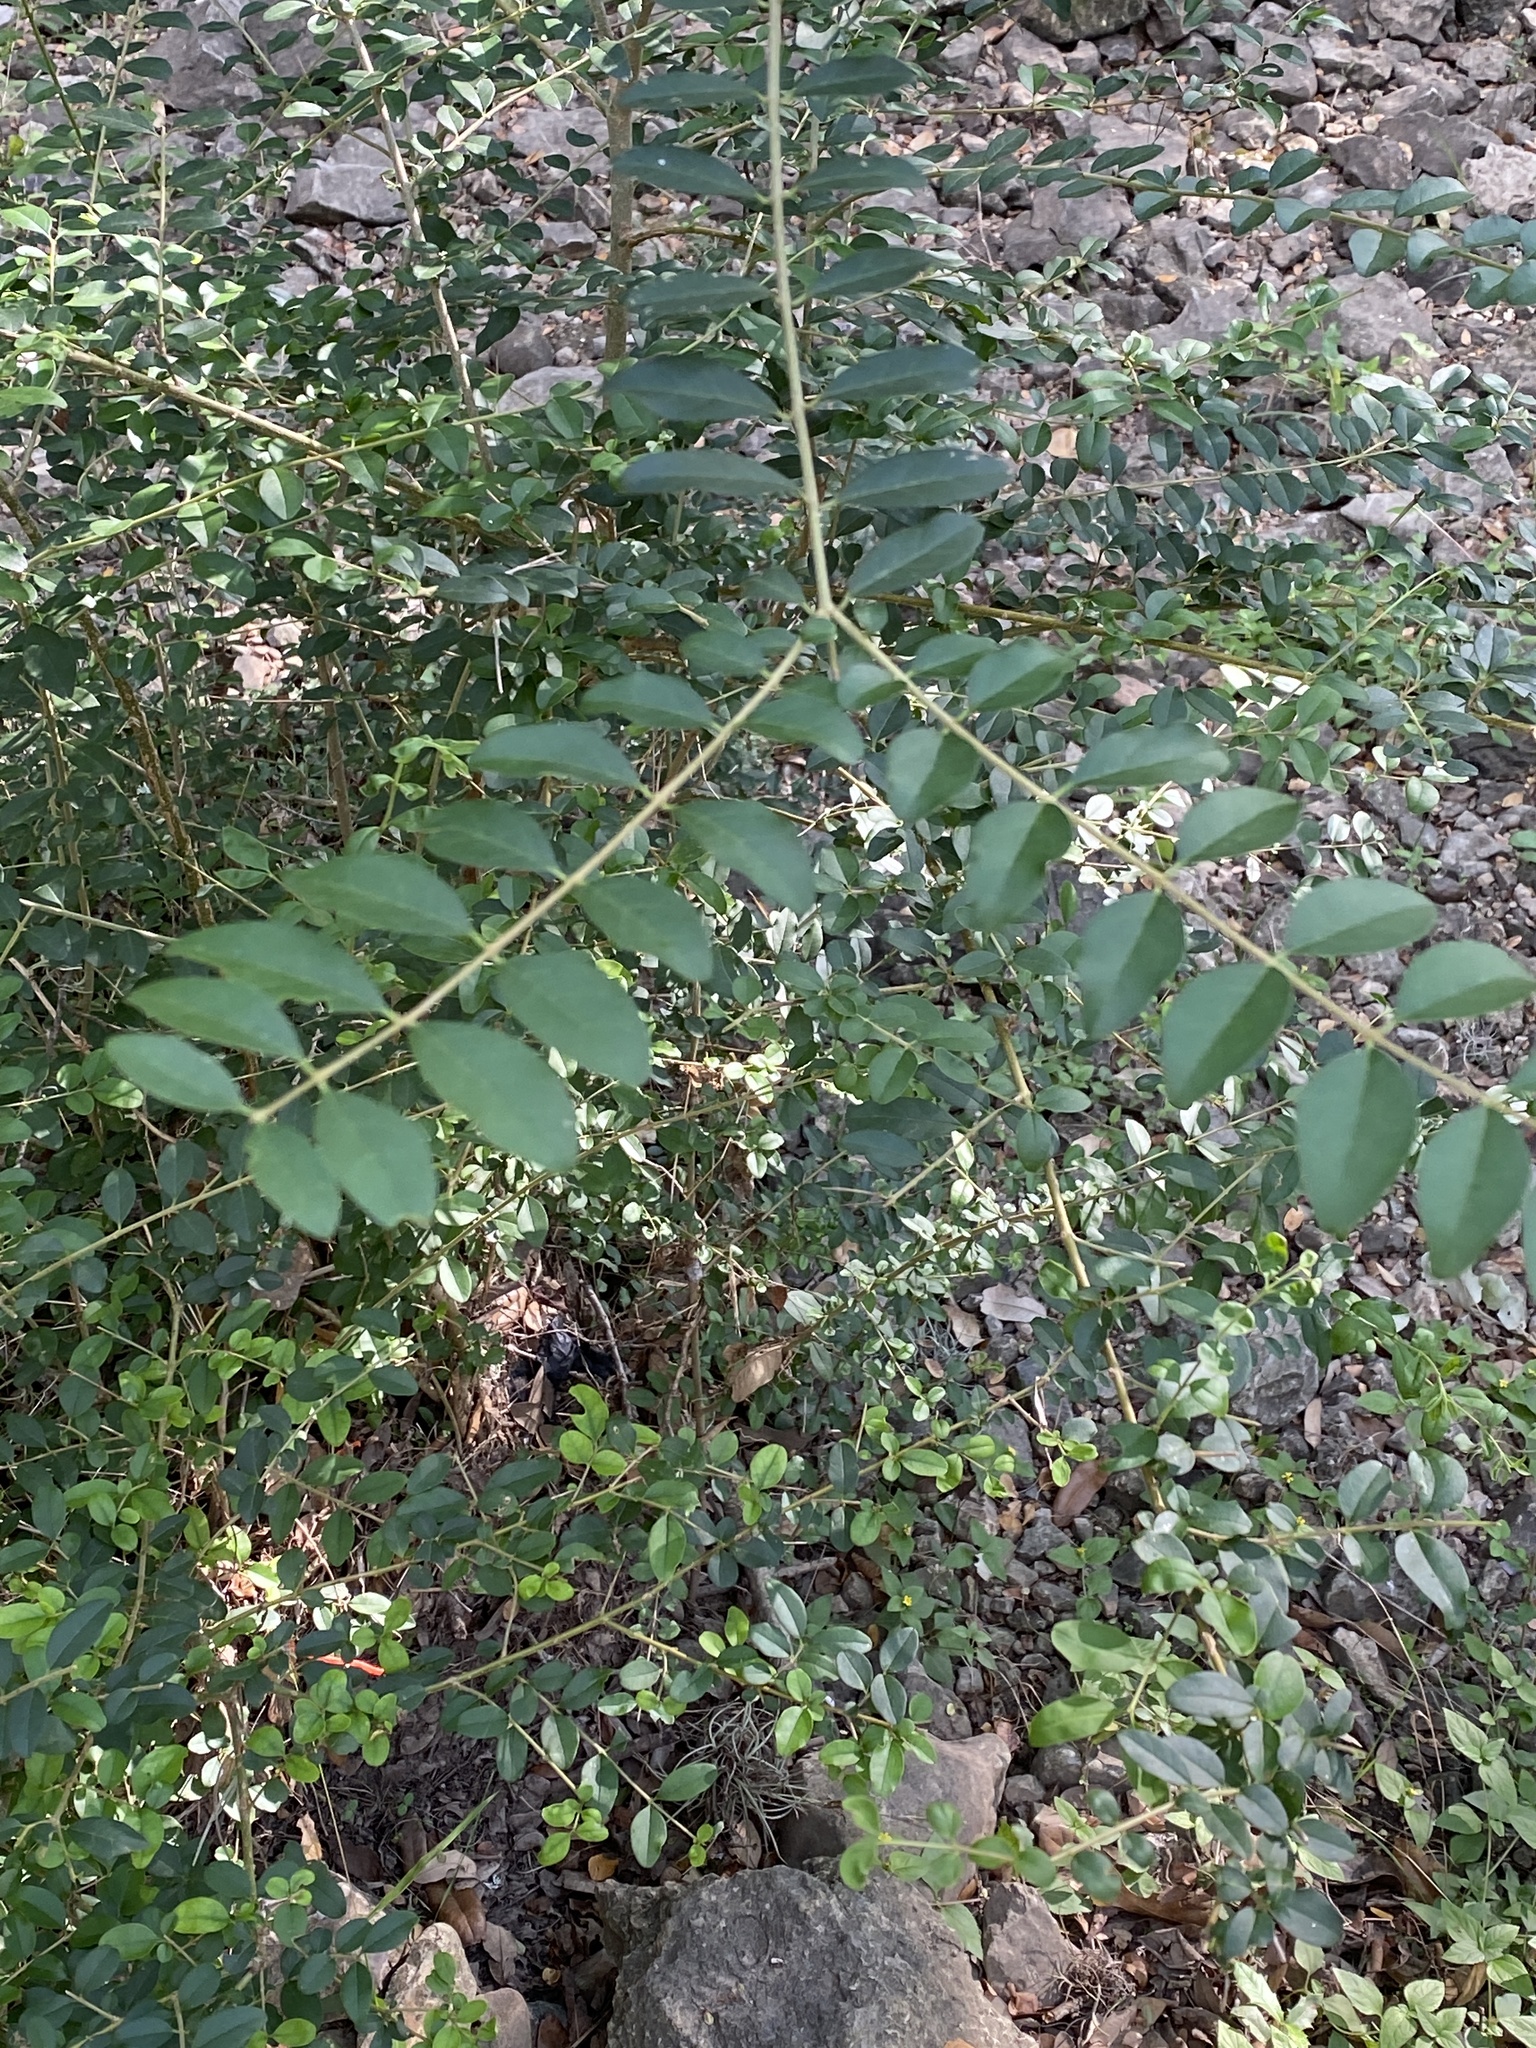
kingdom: Plantae
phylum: Tracheophyta
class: Magnoliopsida
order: Lamiales
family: Oleaceae
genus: Ligustrum
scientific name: Ligustrum sinense
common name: Chinese privet
